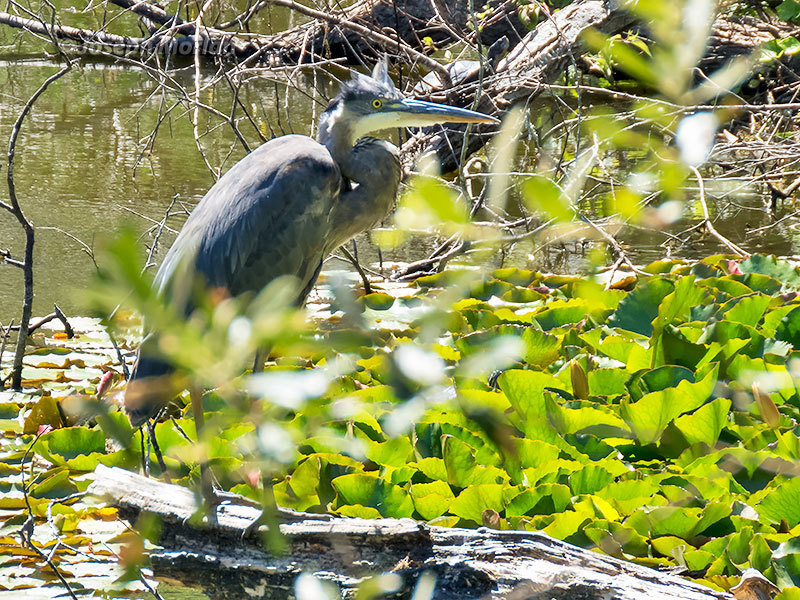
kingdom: Animalia
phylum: Chordata
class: Aves
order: Pelecaniformes
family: Ardeidae
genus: Ardea
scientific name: Ardea herodias
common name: Great blue heron
